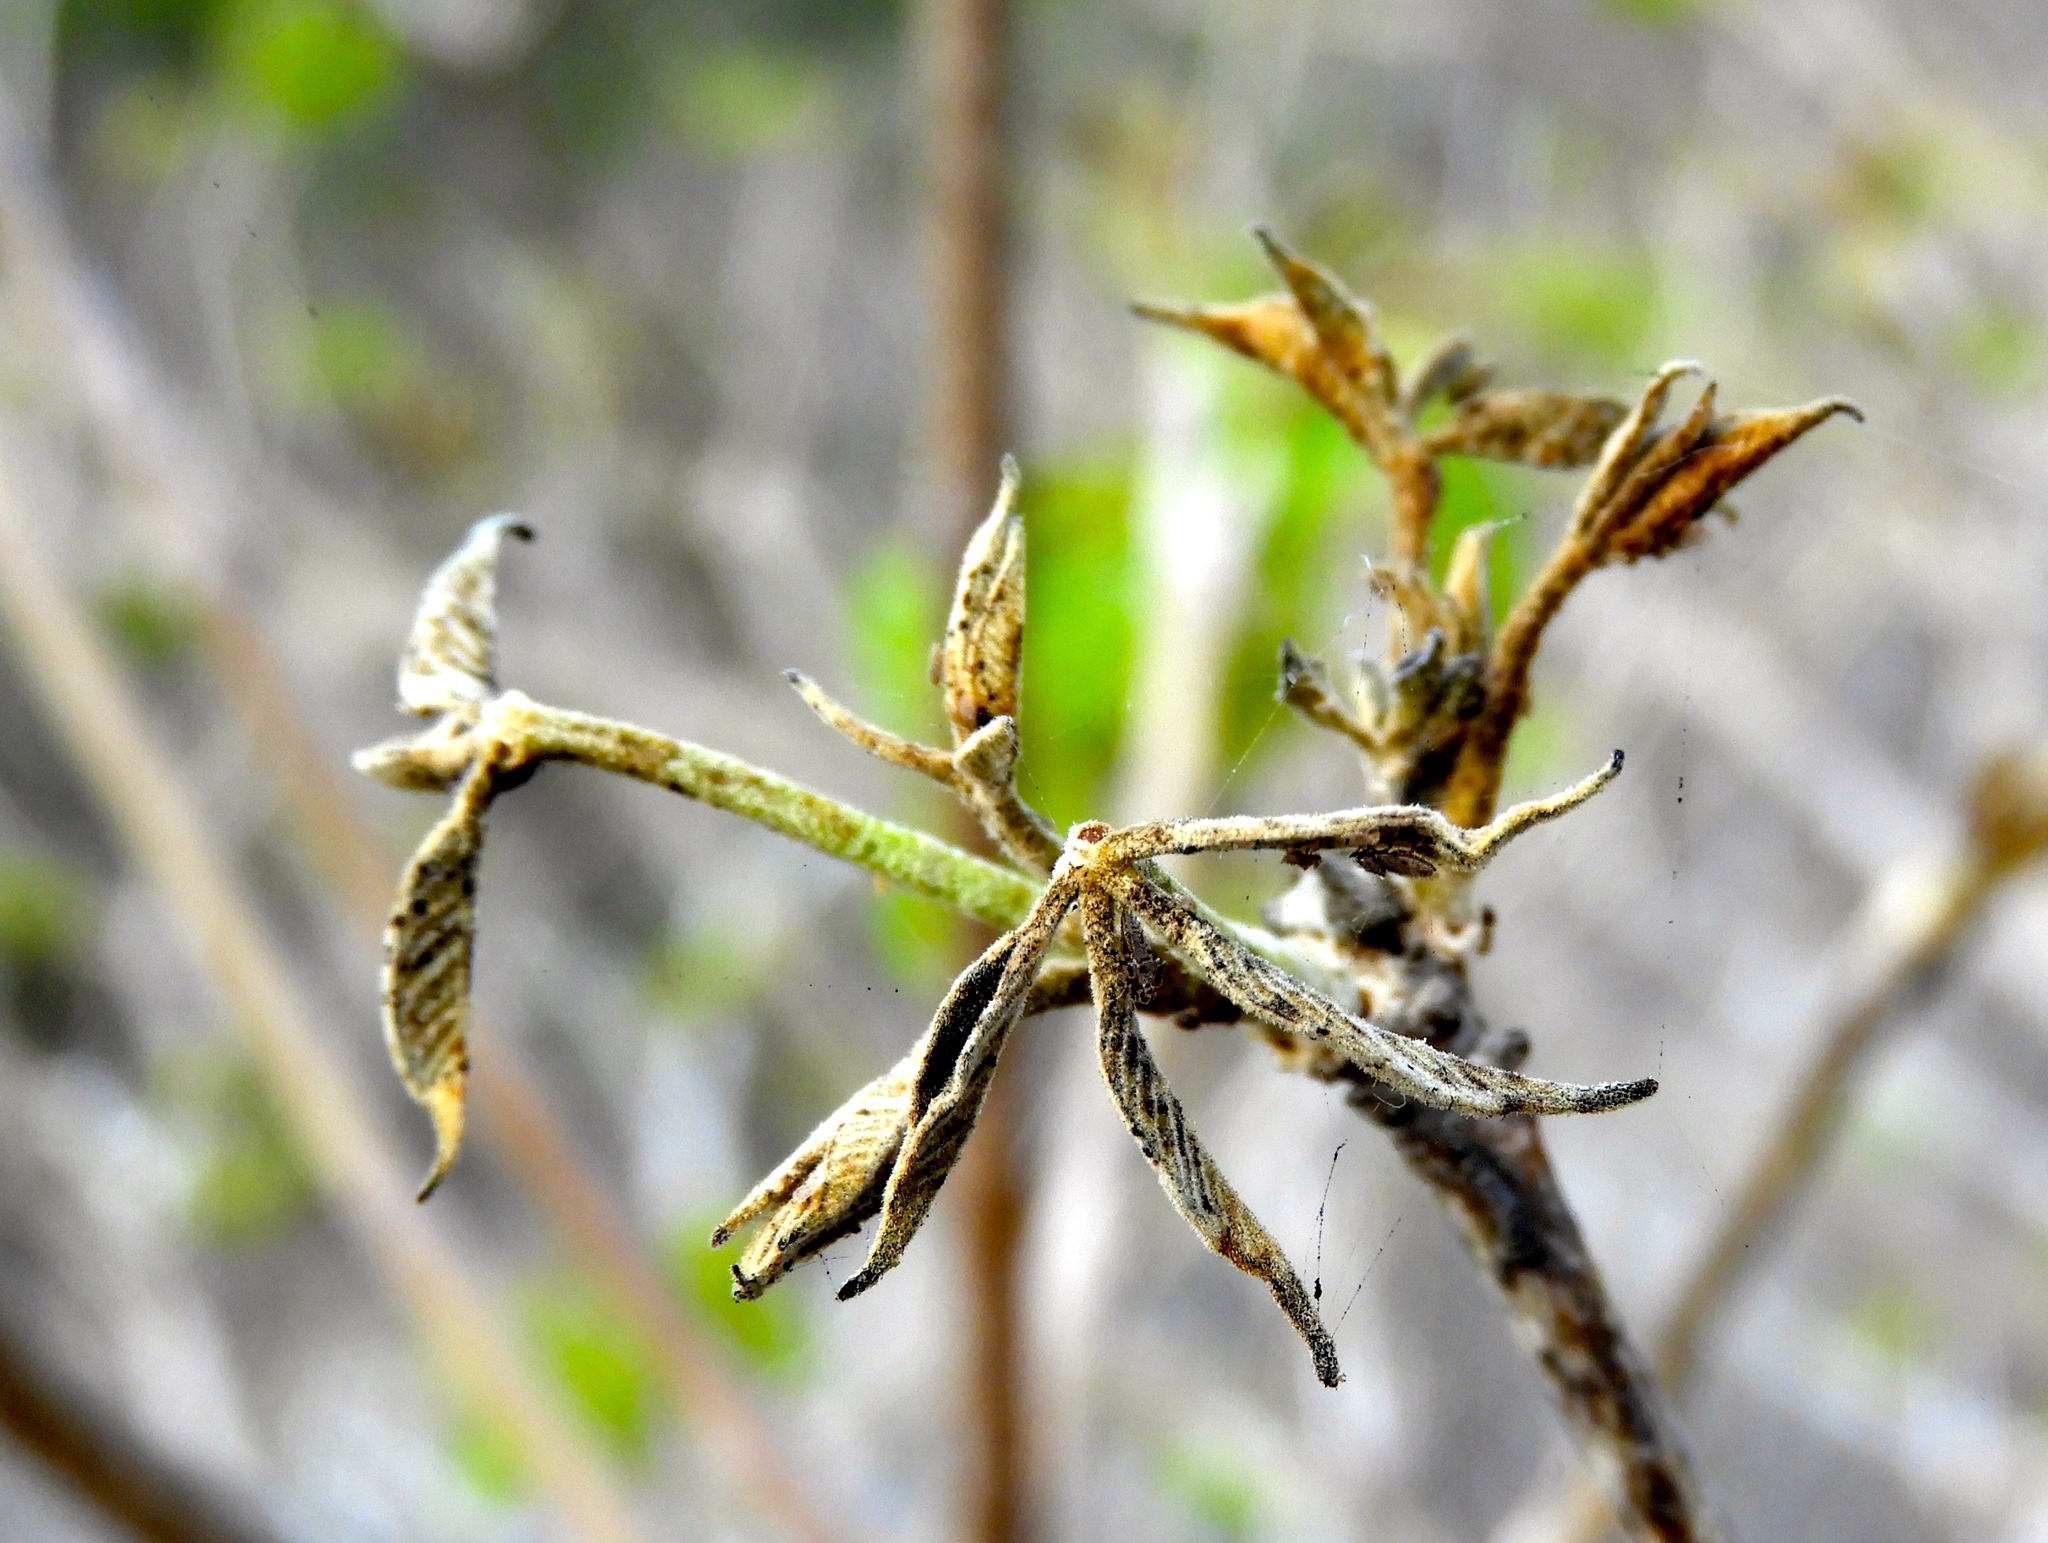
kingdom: Plantae
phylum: Tracheophyta
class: Magnoliopsida
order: Lamiales
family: Bignoniaceae
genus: Handroanthus
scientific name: Handroanthus impetiginosum
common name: Pink trumpet tree
